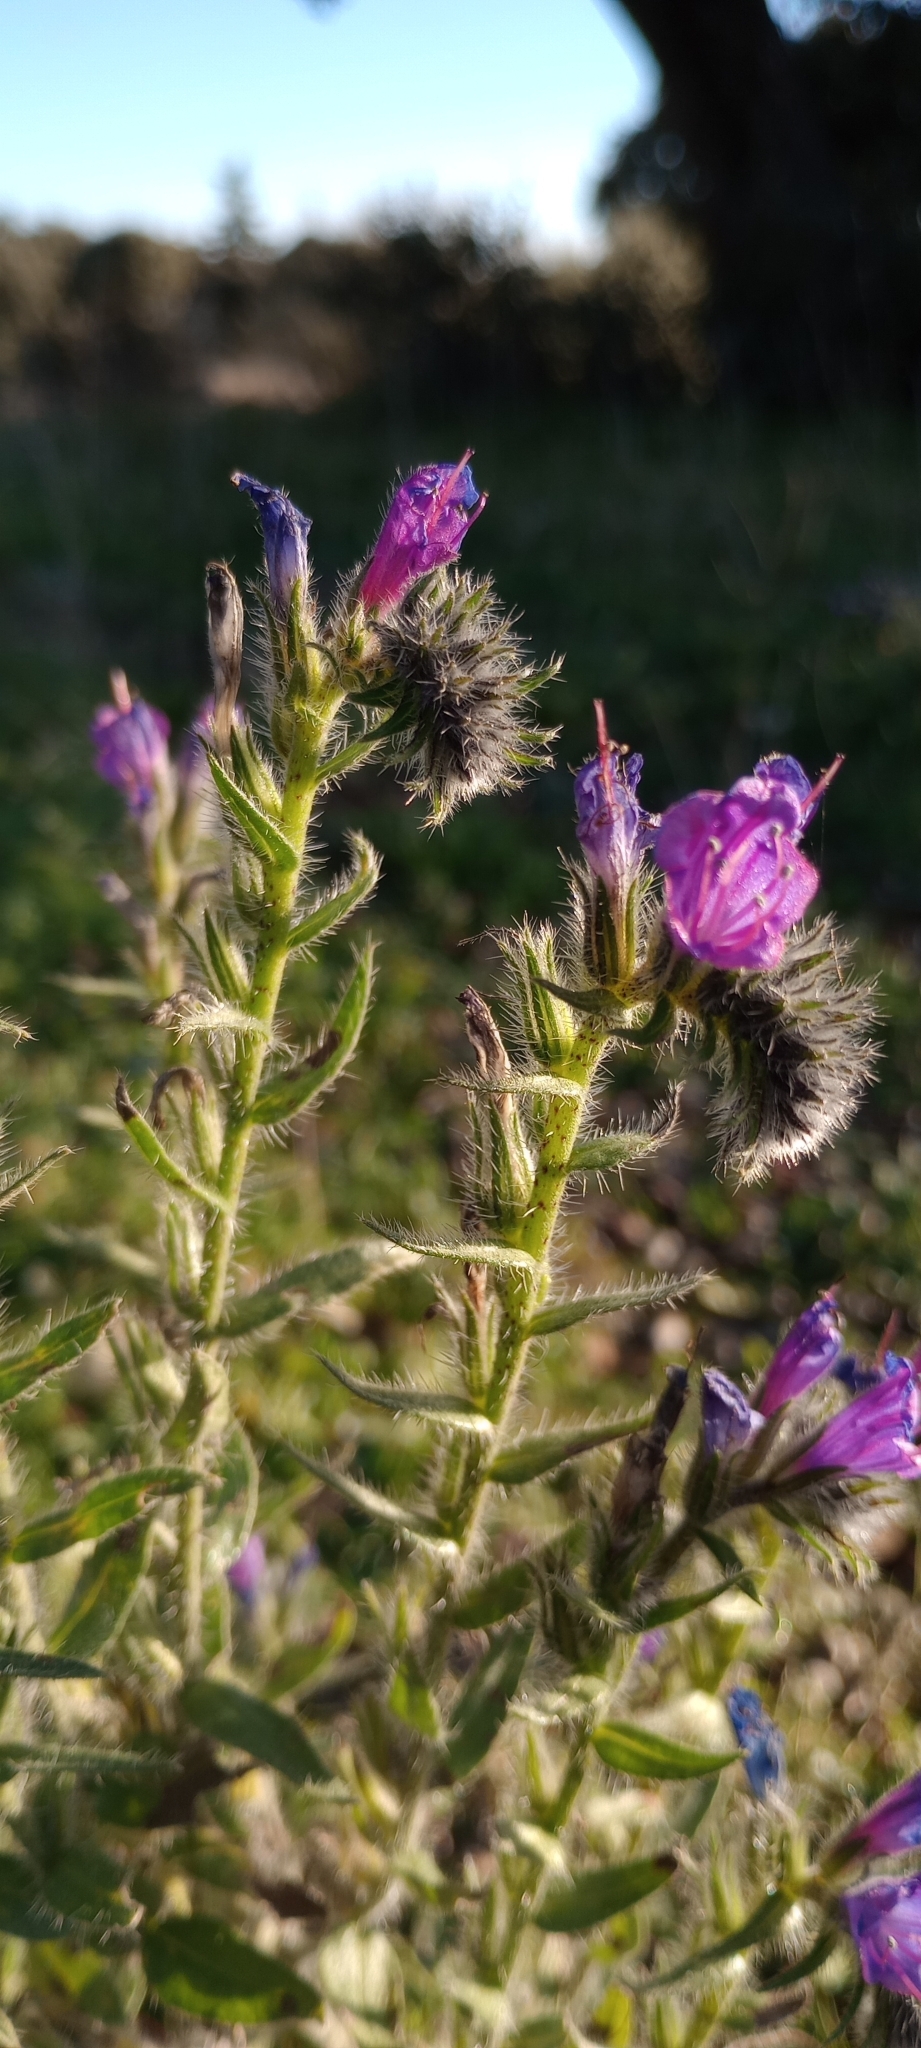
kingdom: Plantae
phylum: Tracheophyta
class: Magnoliopsida
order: Boraginales
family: Boraginaceae
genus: Echium
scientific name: Echium vulgare
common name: Common viper's bugloss
